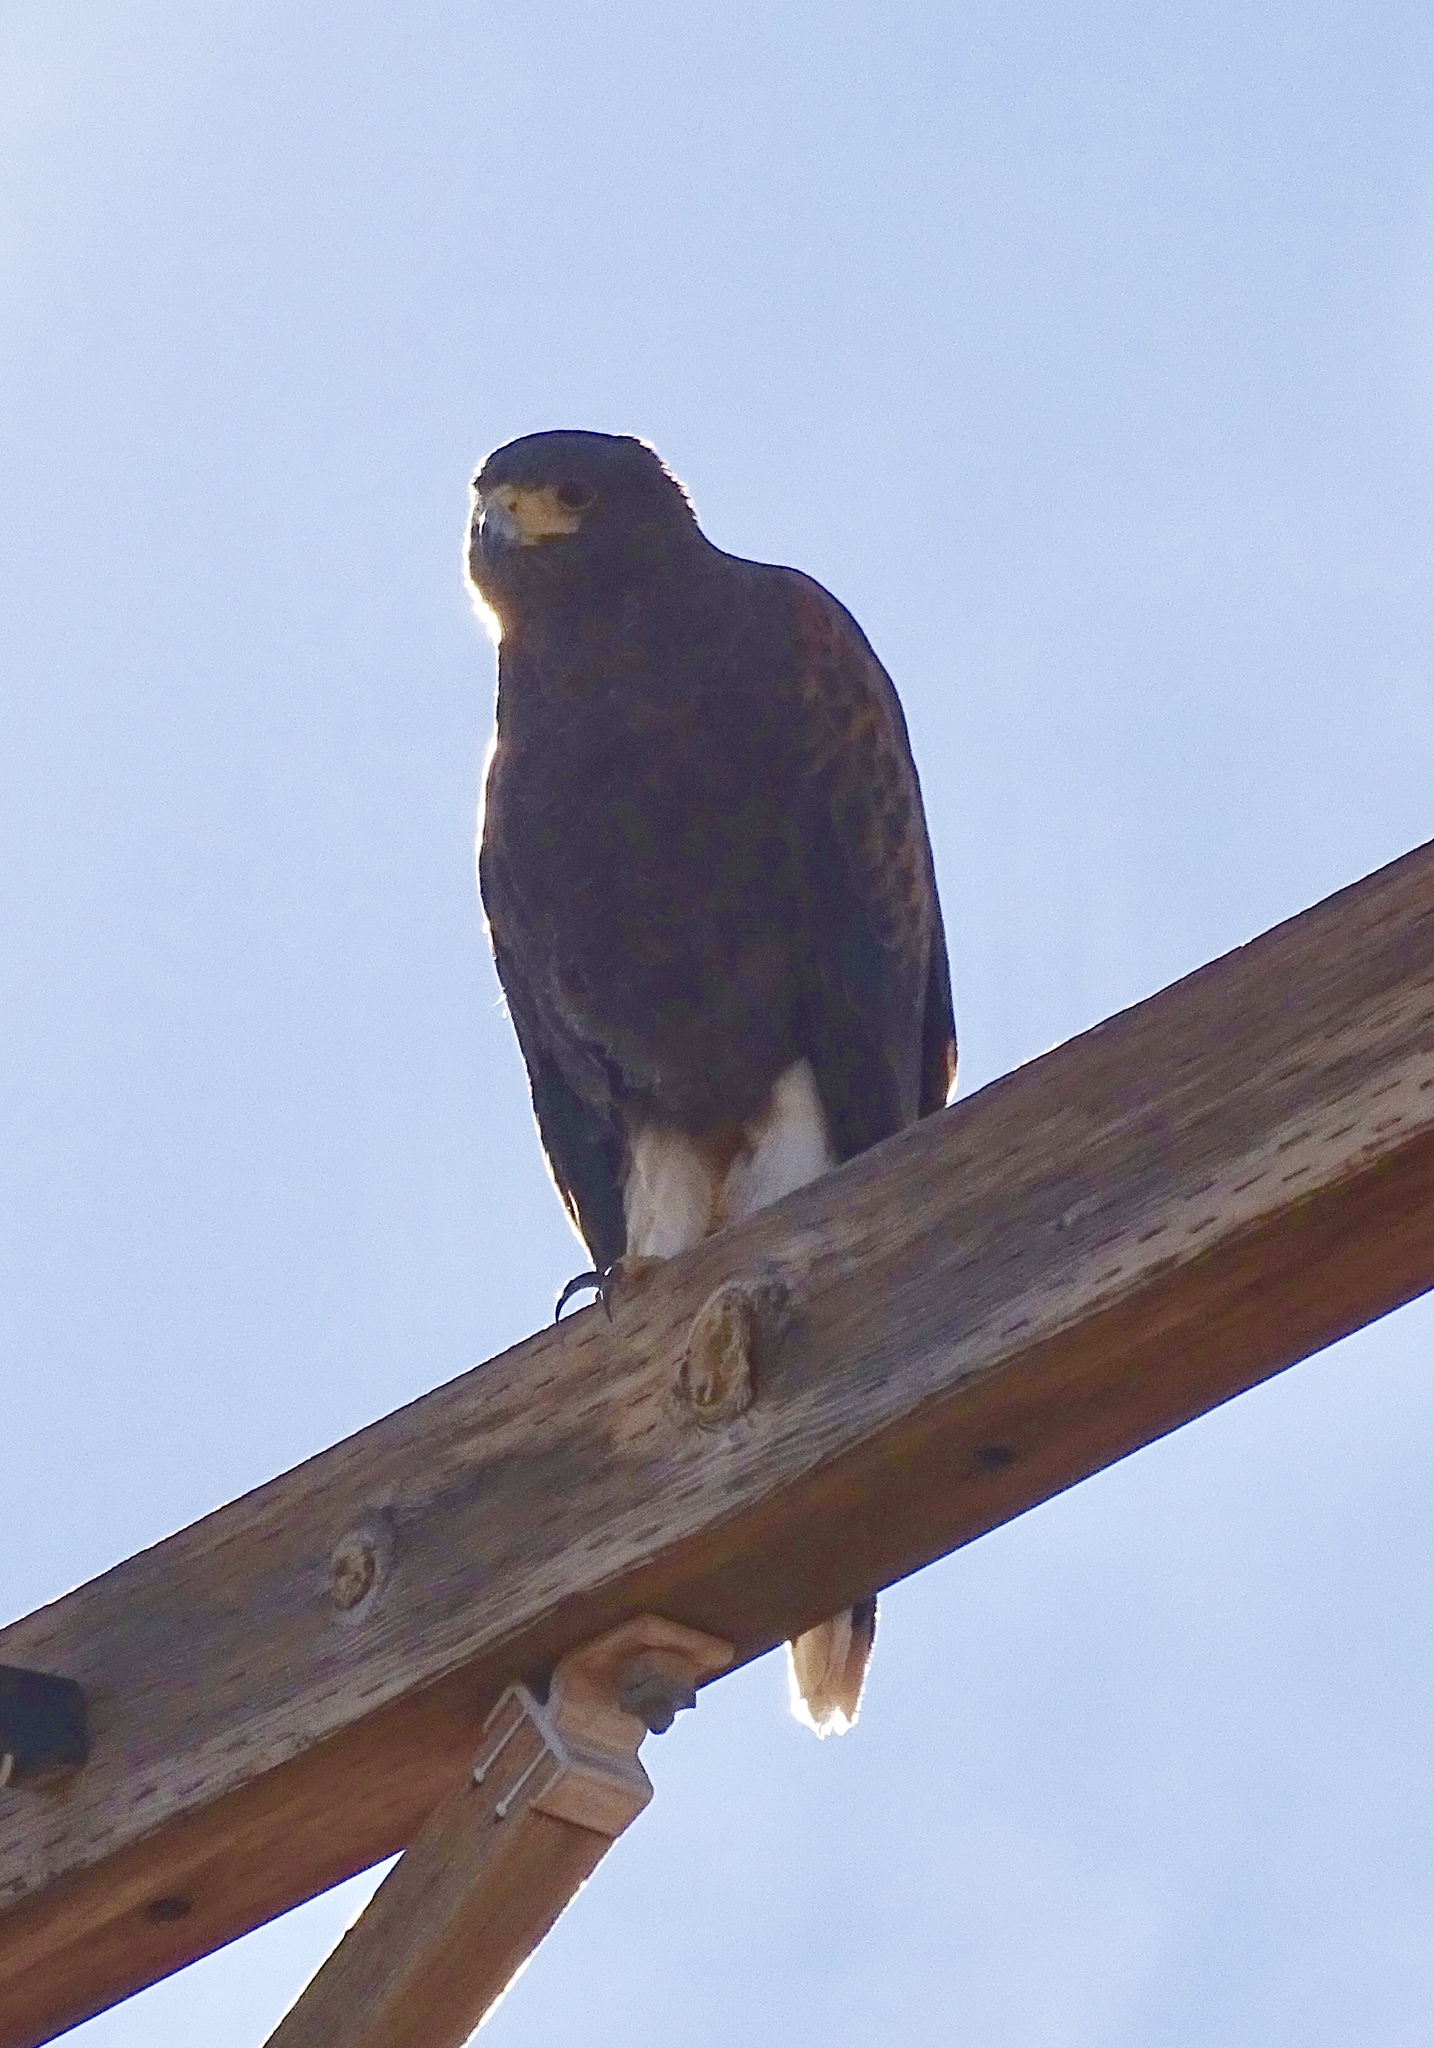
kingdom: Animalia
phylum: Chordata
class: Aves
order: Accipitriformes
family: Accipitridae
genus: Parabuteo
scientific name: Parabuteo unicinctus
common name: Harris's hawk
